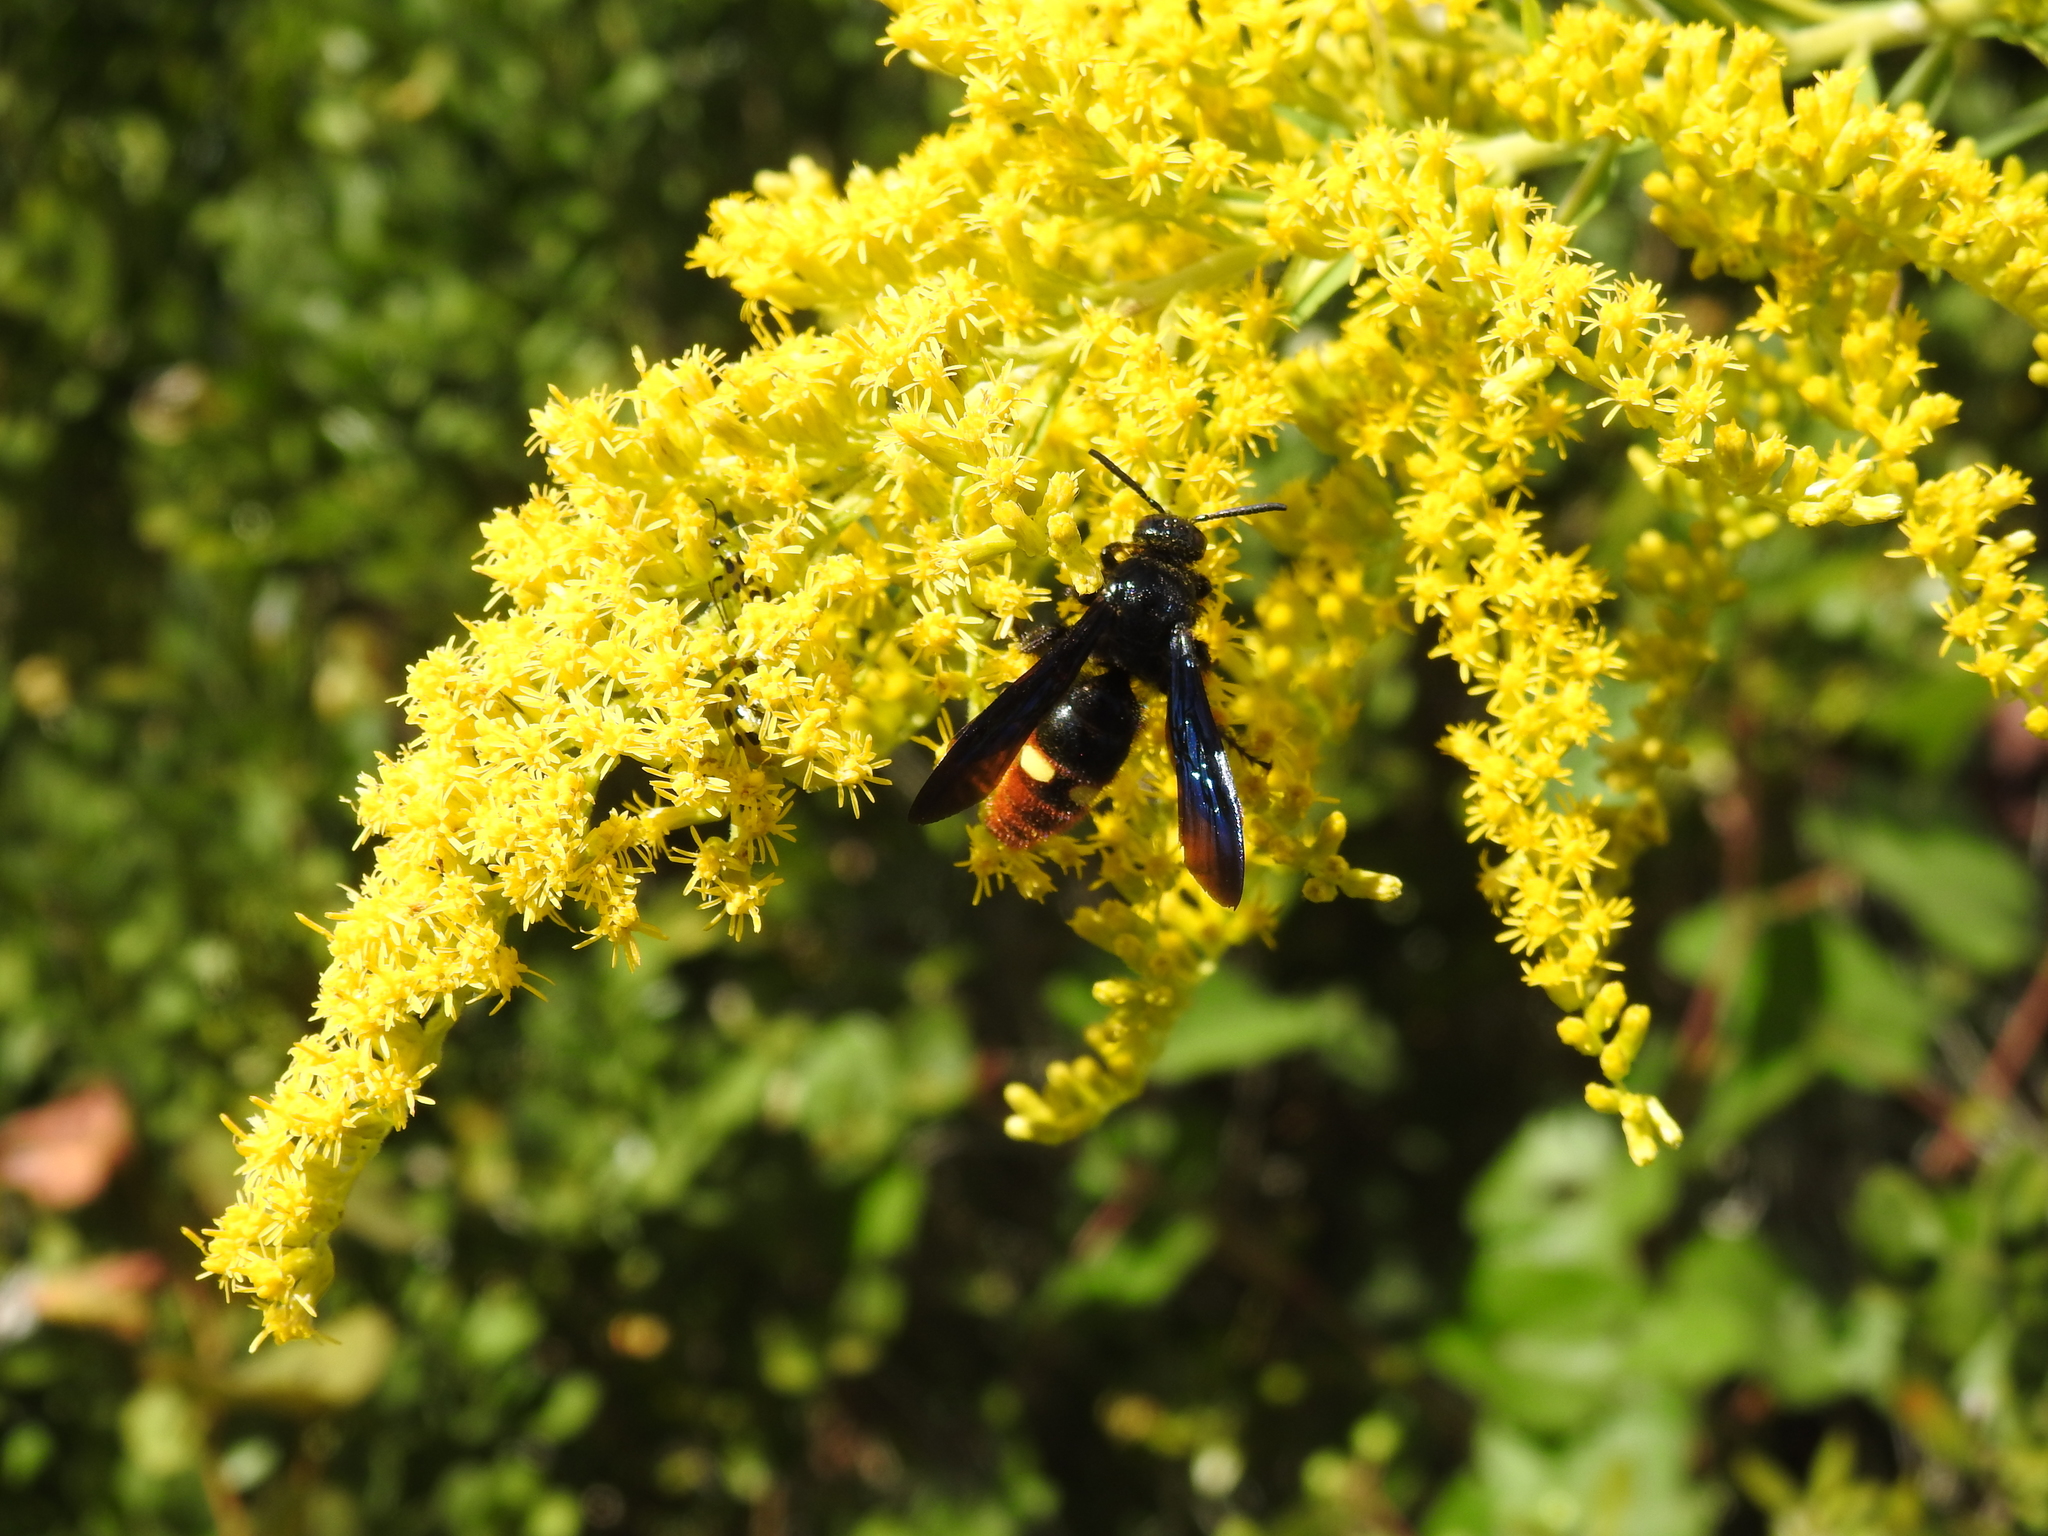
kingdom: Animalia
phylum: Arthropoda
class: Insecta
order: Hymenoptera
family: Scoliidae
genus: Scolia
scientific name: Scolia dubia
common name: Blue-winged scoliid wasp
